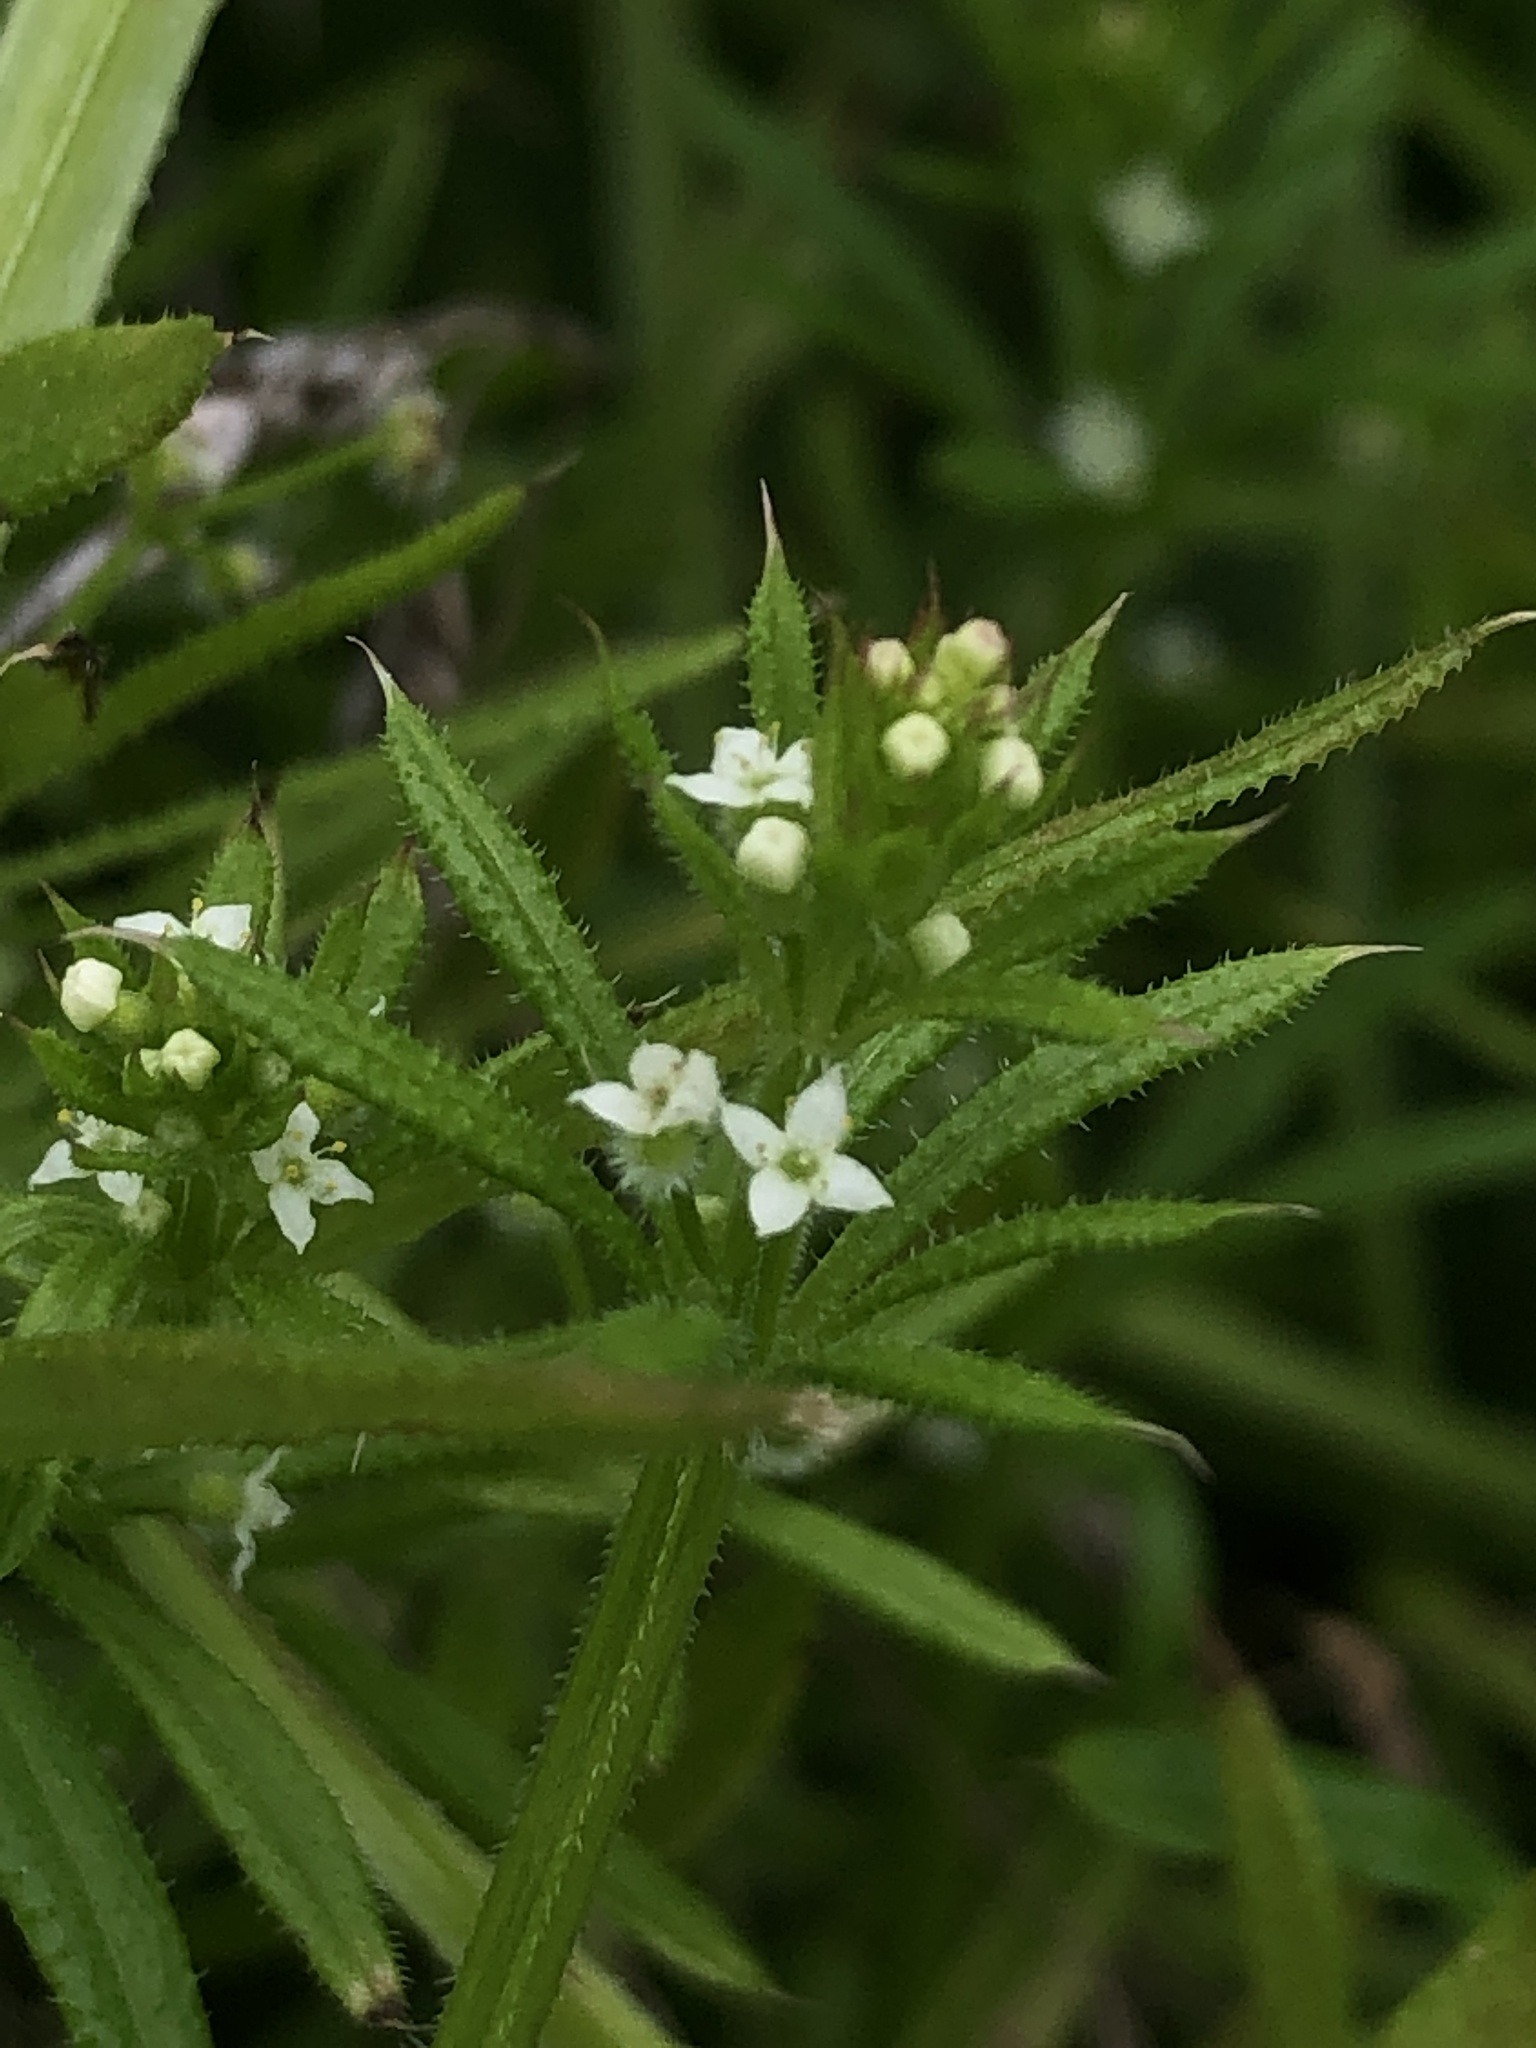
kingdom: Plantae
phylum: Tracheophyta
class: Magnoliopsida
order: Gentianales
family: Rubiaceae
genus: Galium
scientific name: Galium aparine
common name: Cleavers
